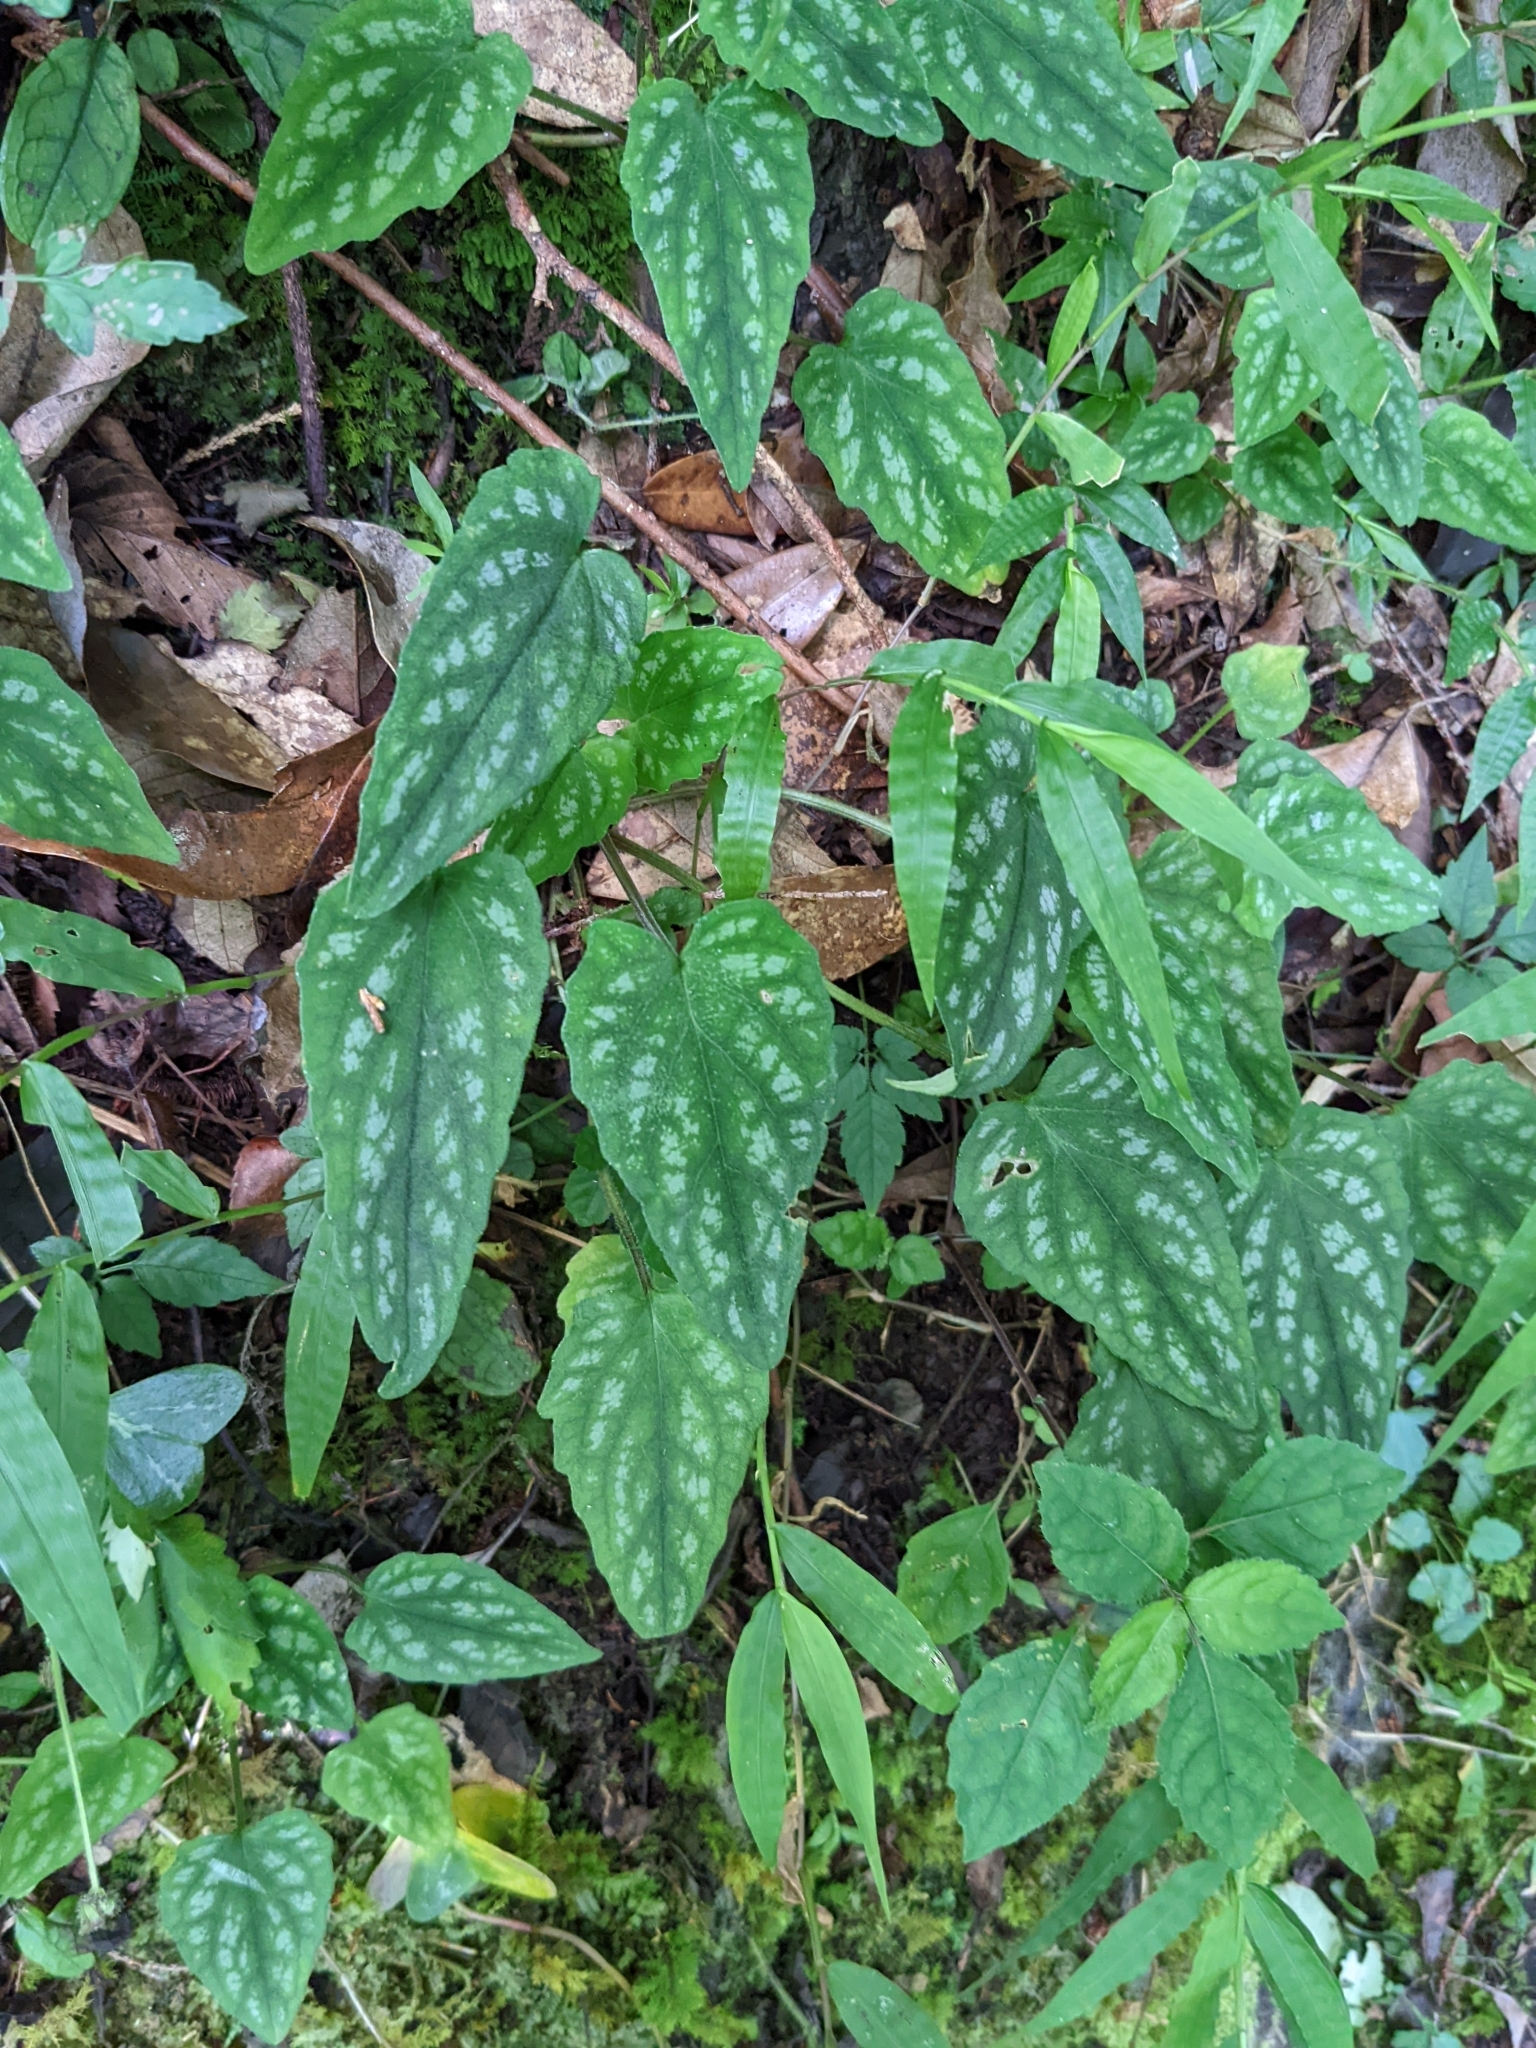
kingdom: Plantae
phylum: Tracheophyta
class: Magnoliopsida
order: Dipsacales
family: Caprifoliaceae
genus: Valeriana
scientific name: Valeriana hsui
